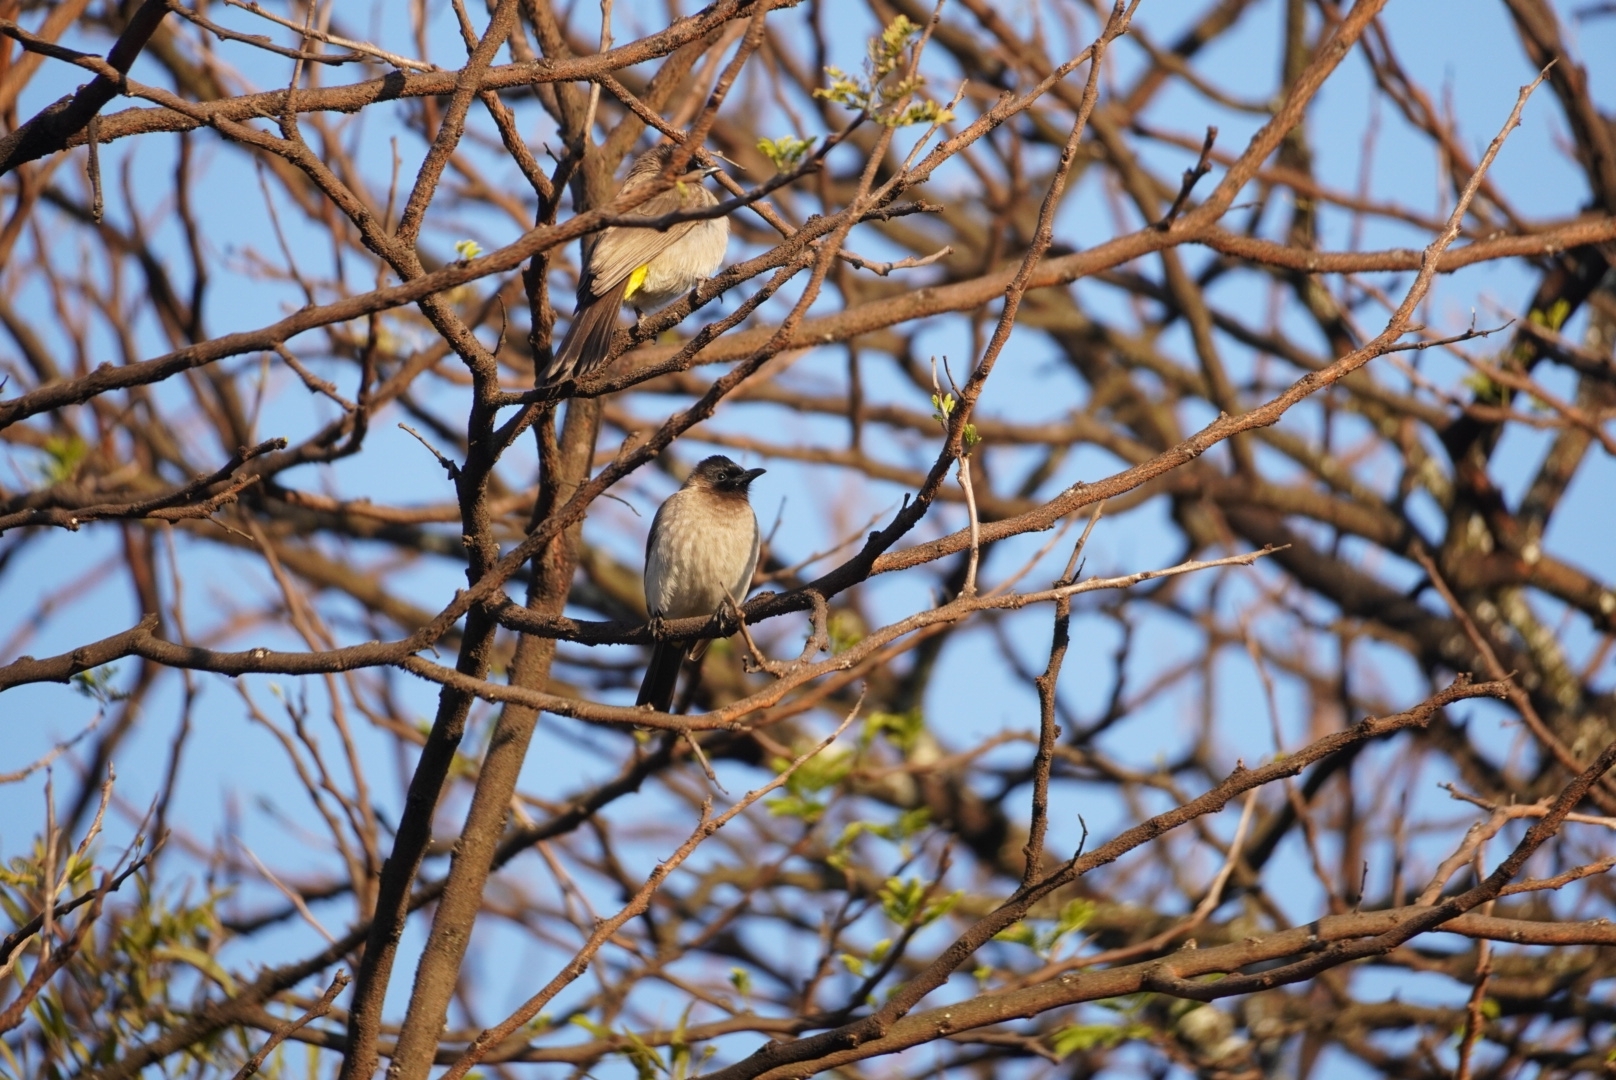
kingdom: Animalia
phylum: Chordata
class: Aves
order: Passeriformes
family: Pycnonotidae
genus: Pycnonotus
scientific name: Pycnonotus barbatus
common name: Common bulbul
